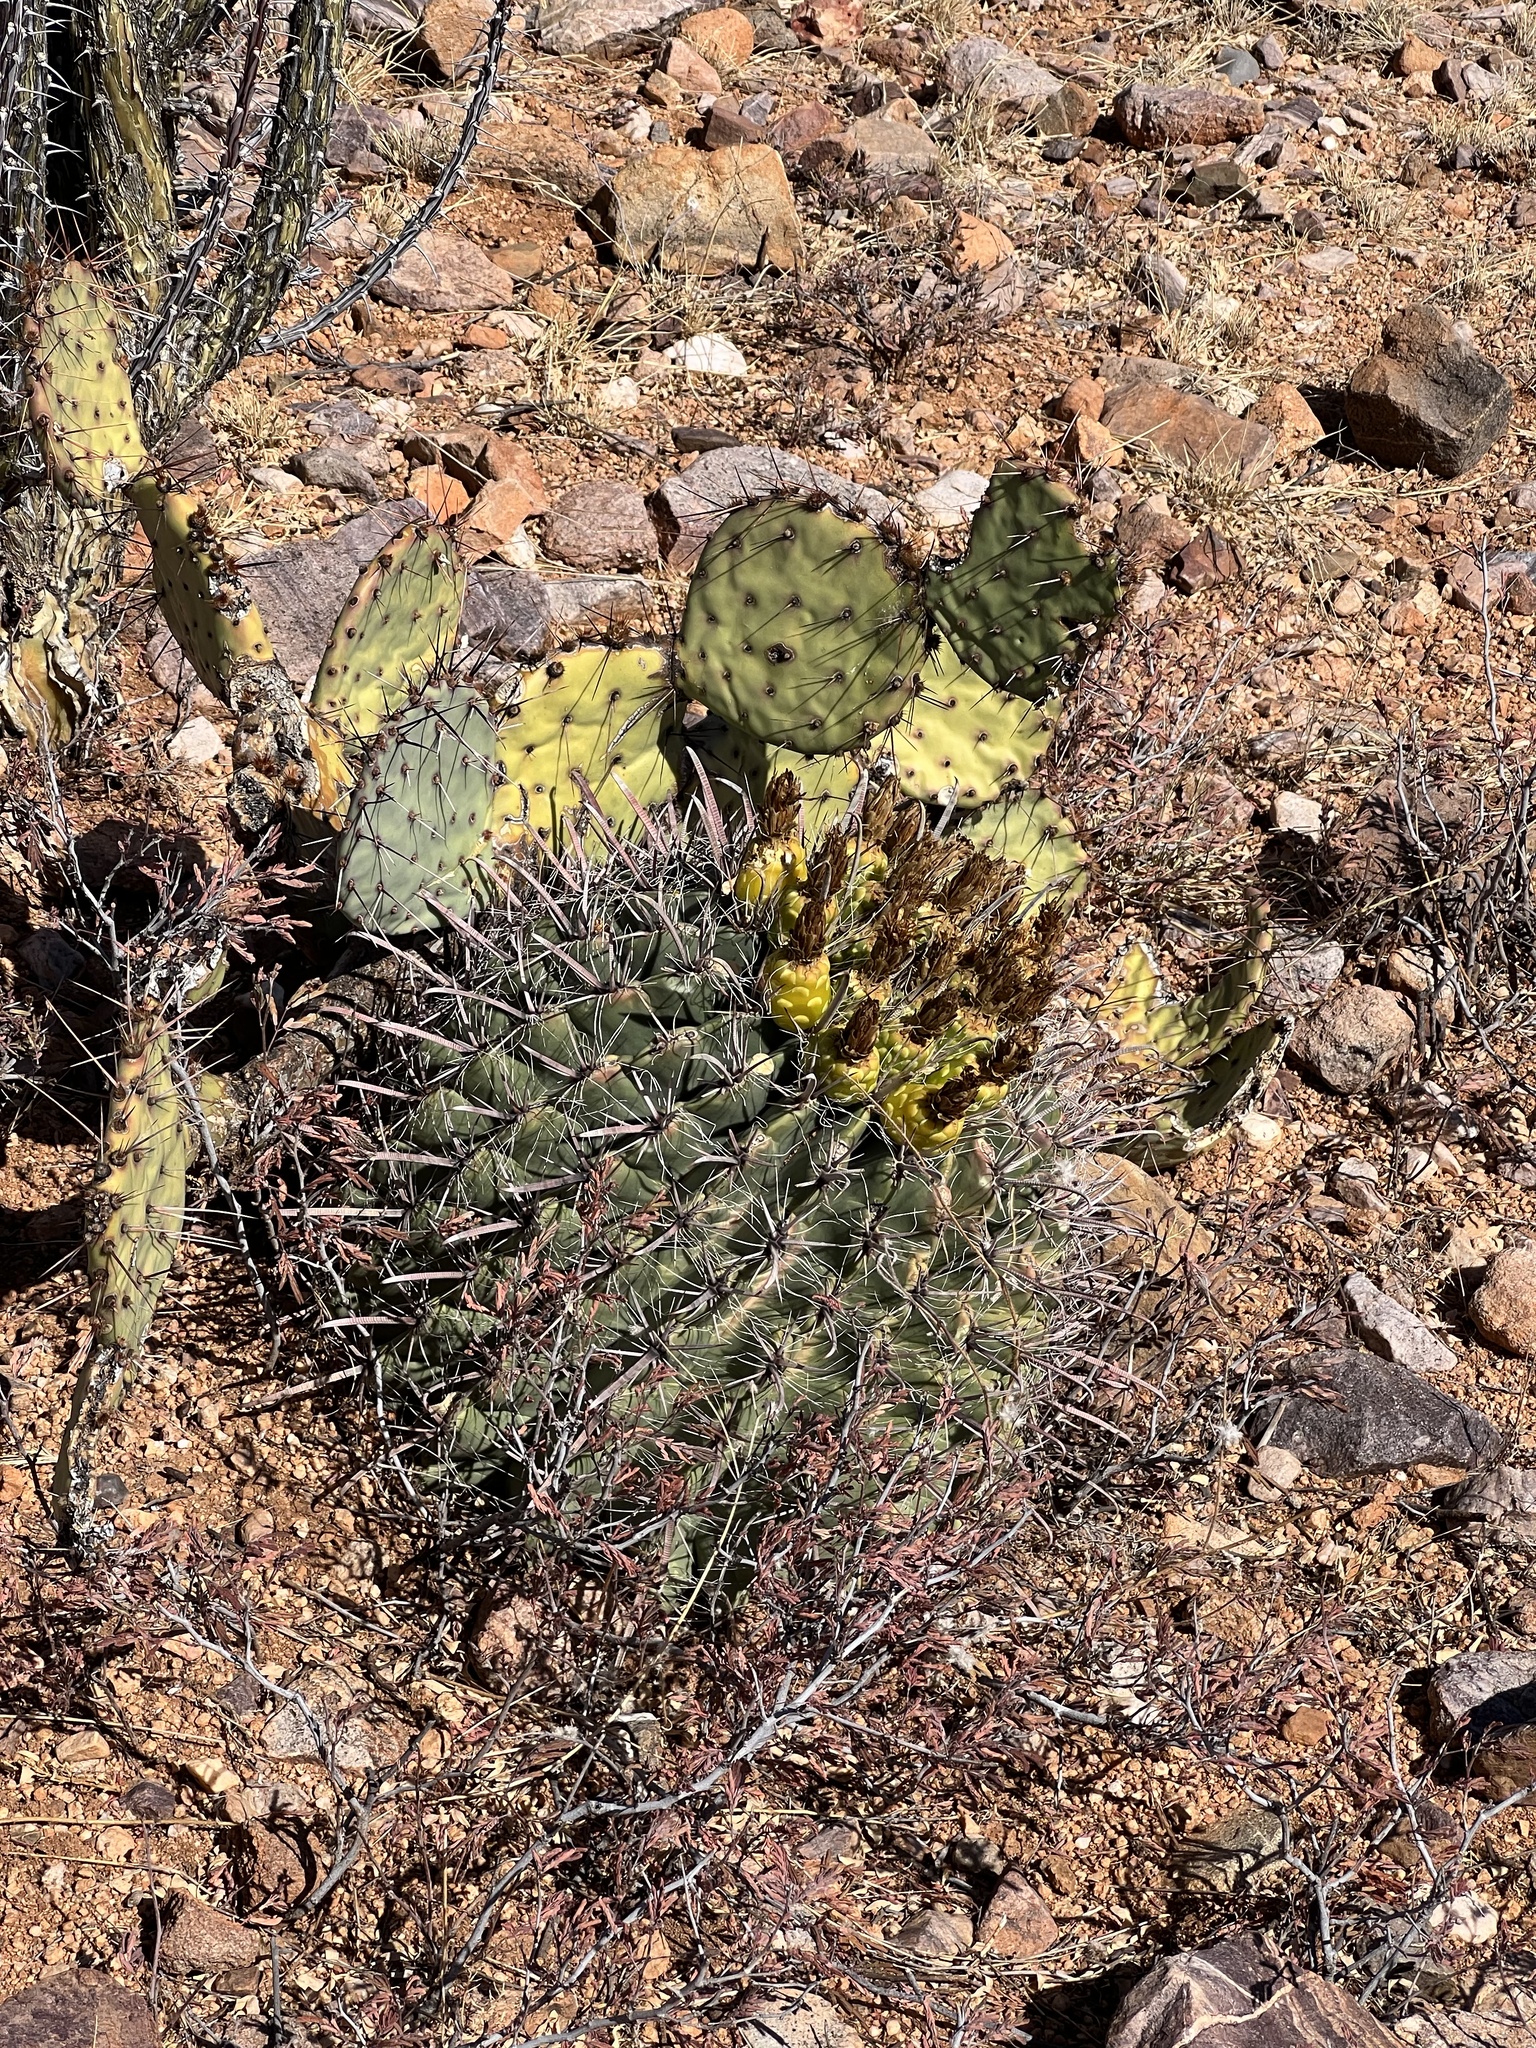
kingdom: Plantae
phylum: Tracheophyta
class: Magnoliopsida
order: Caryophyllales
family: Cactaceae
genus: Ferocactus
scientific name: Ferocactus wislizeni
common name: Candy barrel cactus
